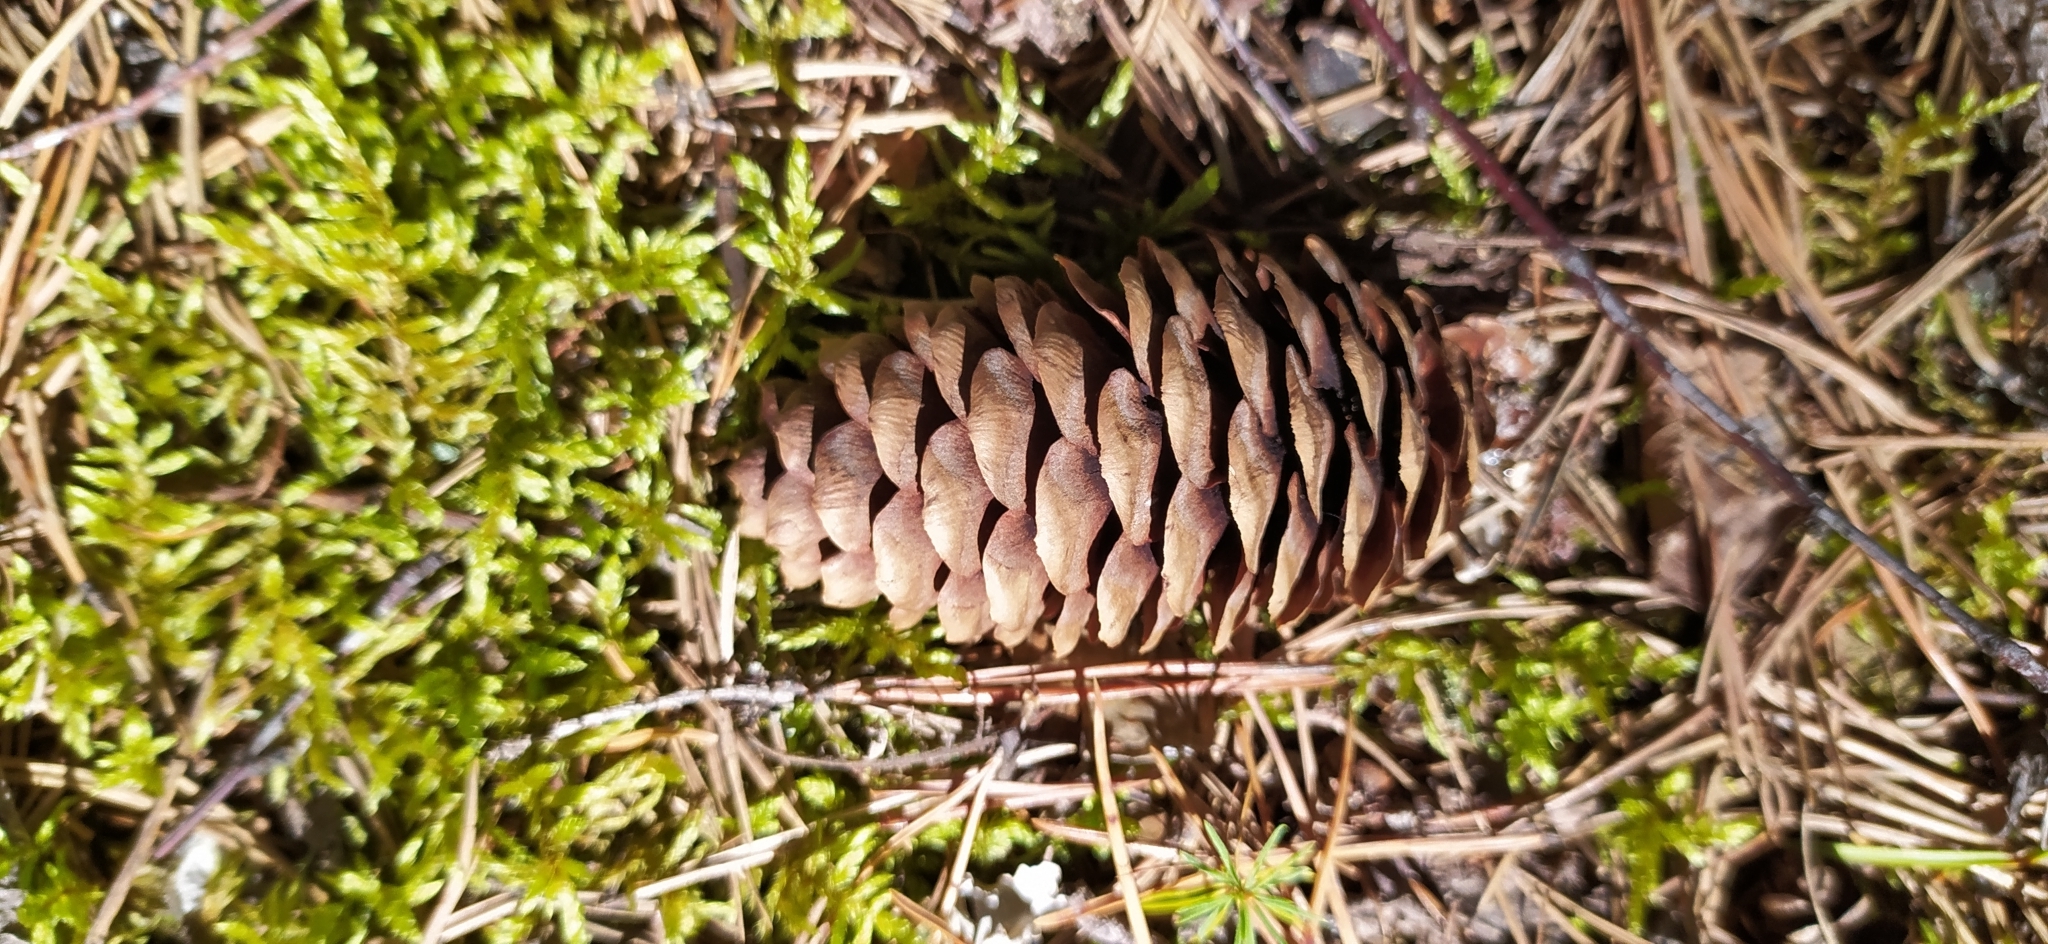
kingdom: Plantae
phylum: Tracheophyta
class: Pinopsida
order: Pinales
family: Pinaceae
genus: Picea
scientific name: Picea obovata
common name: Siberian spruce
